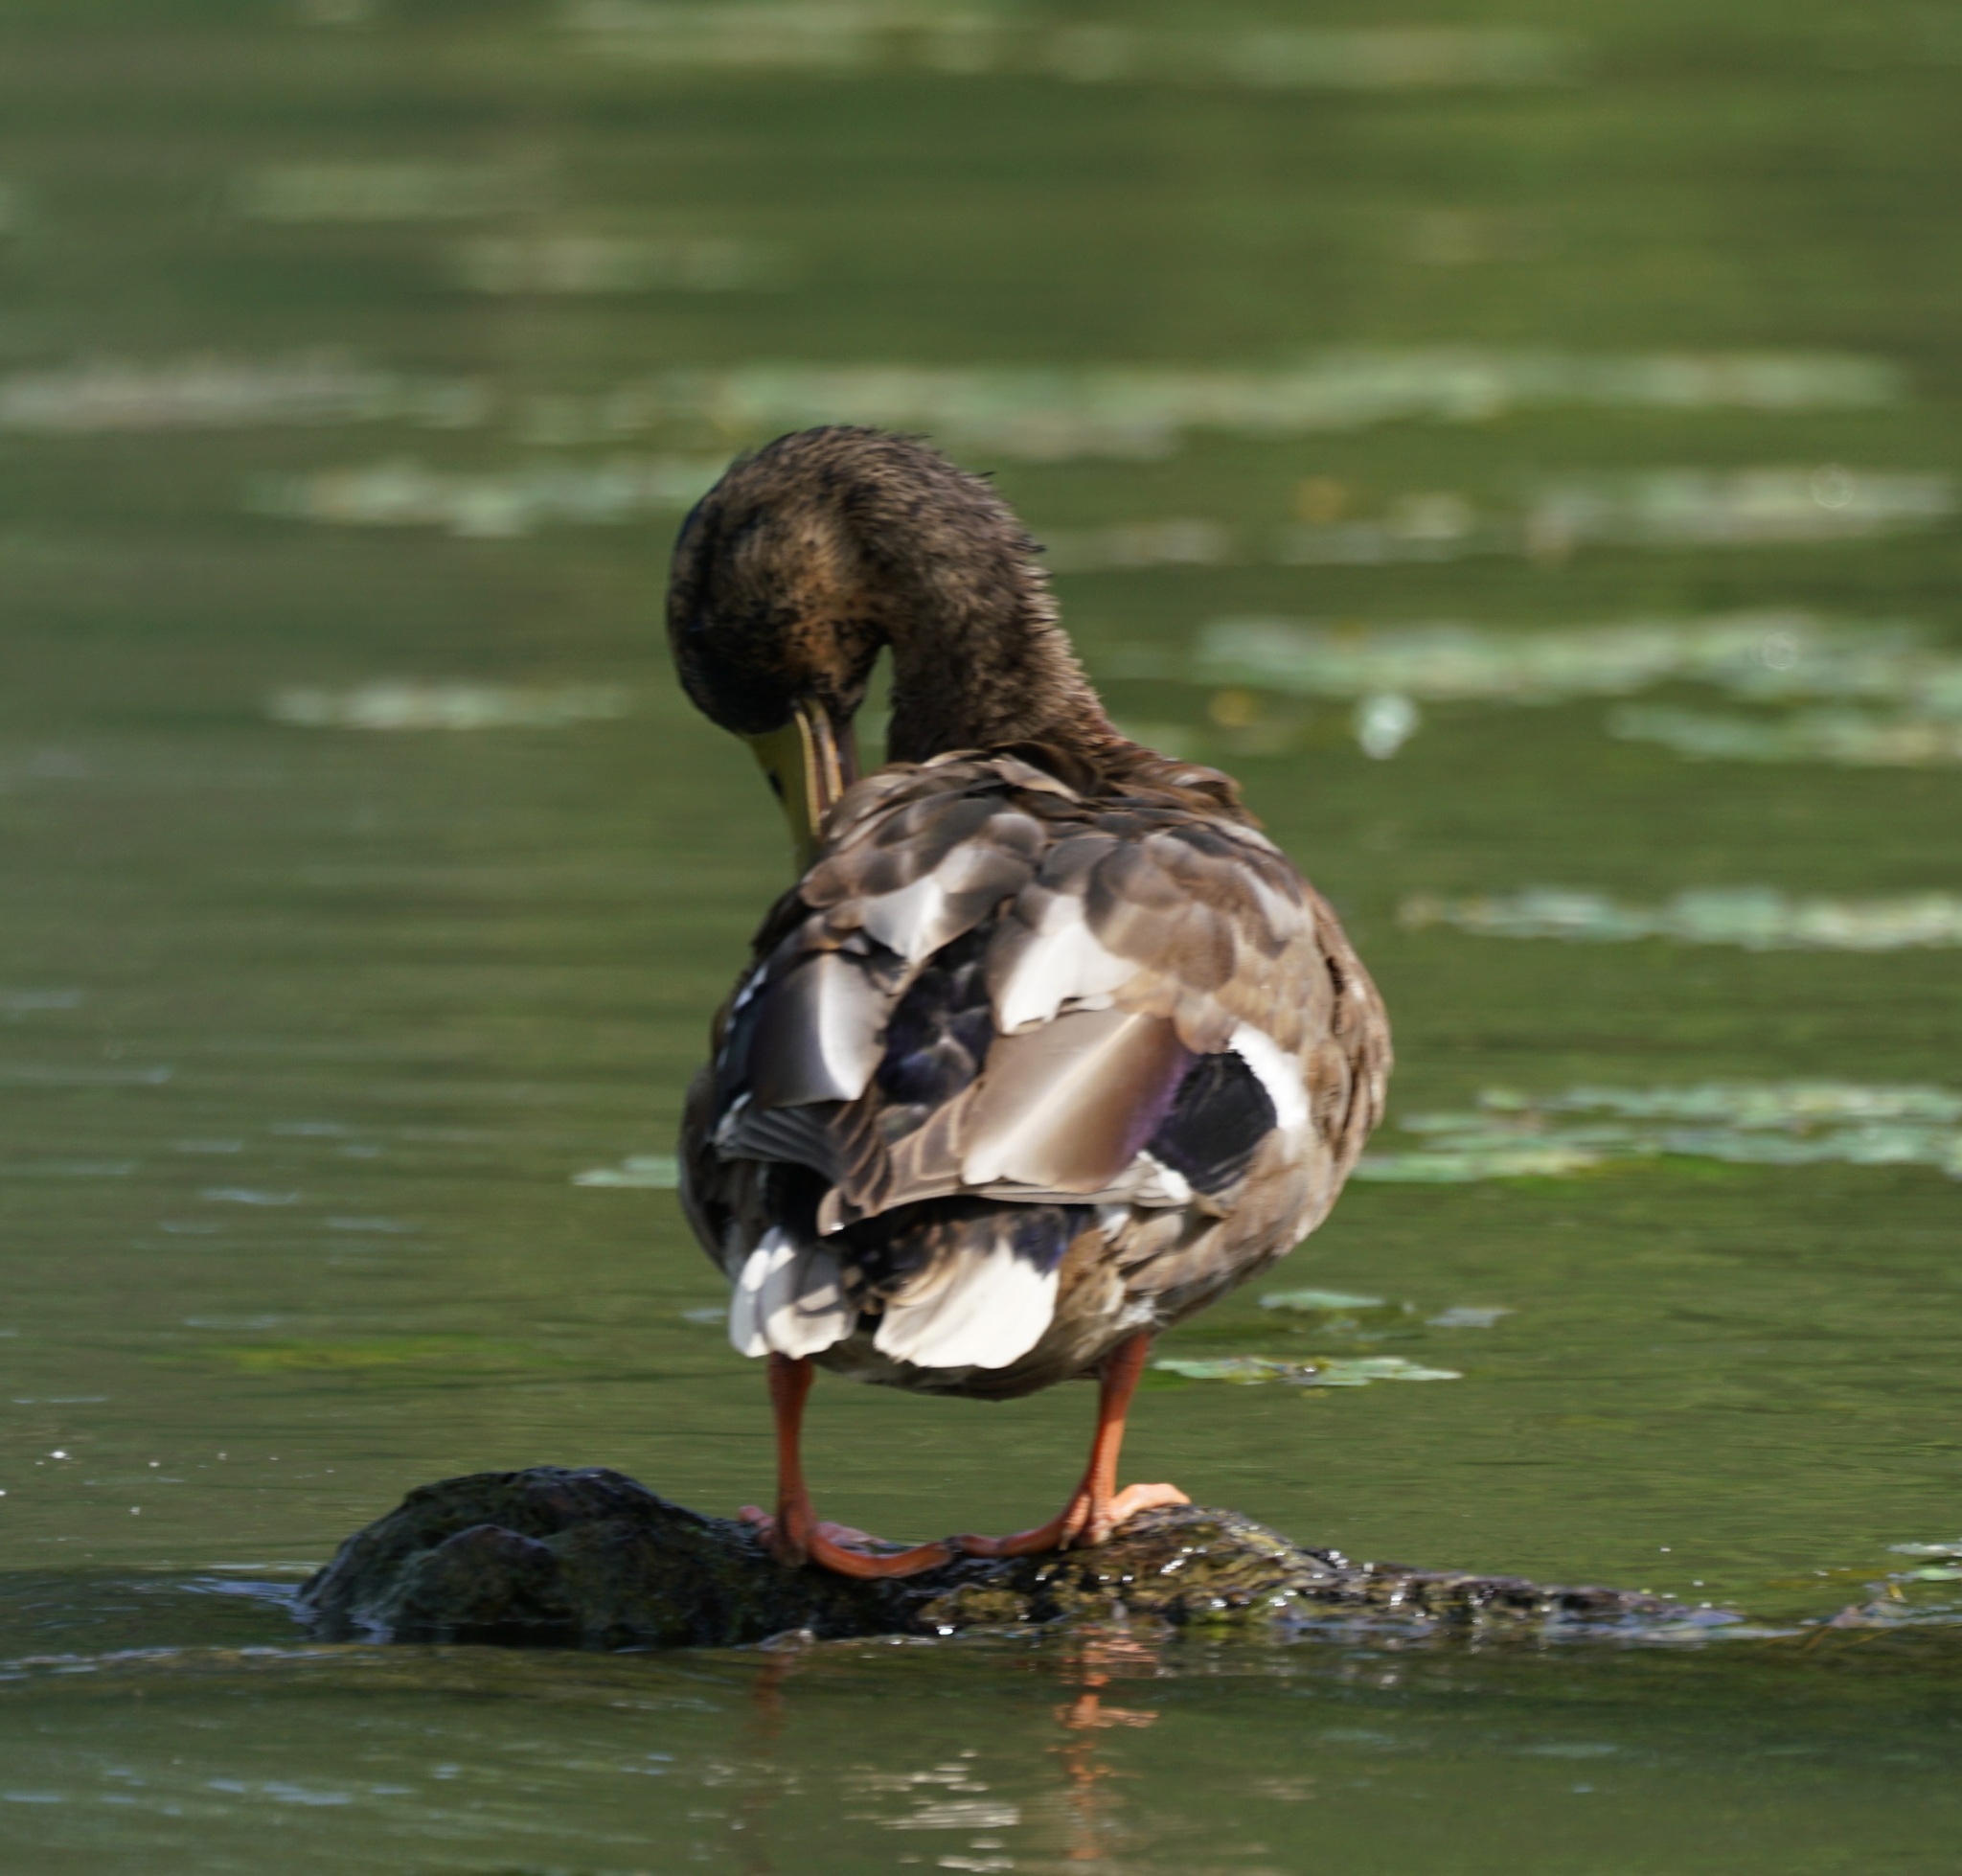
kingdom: Animalia
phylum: Chordata
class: Aves
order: Anseriformes
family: Anatidae
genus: Anas
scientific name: Anas platyrhynchos
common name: Mallard
